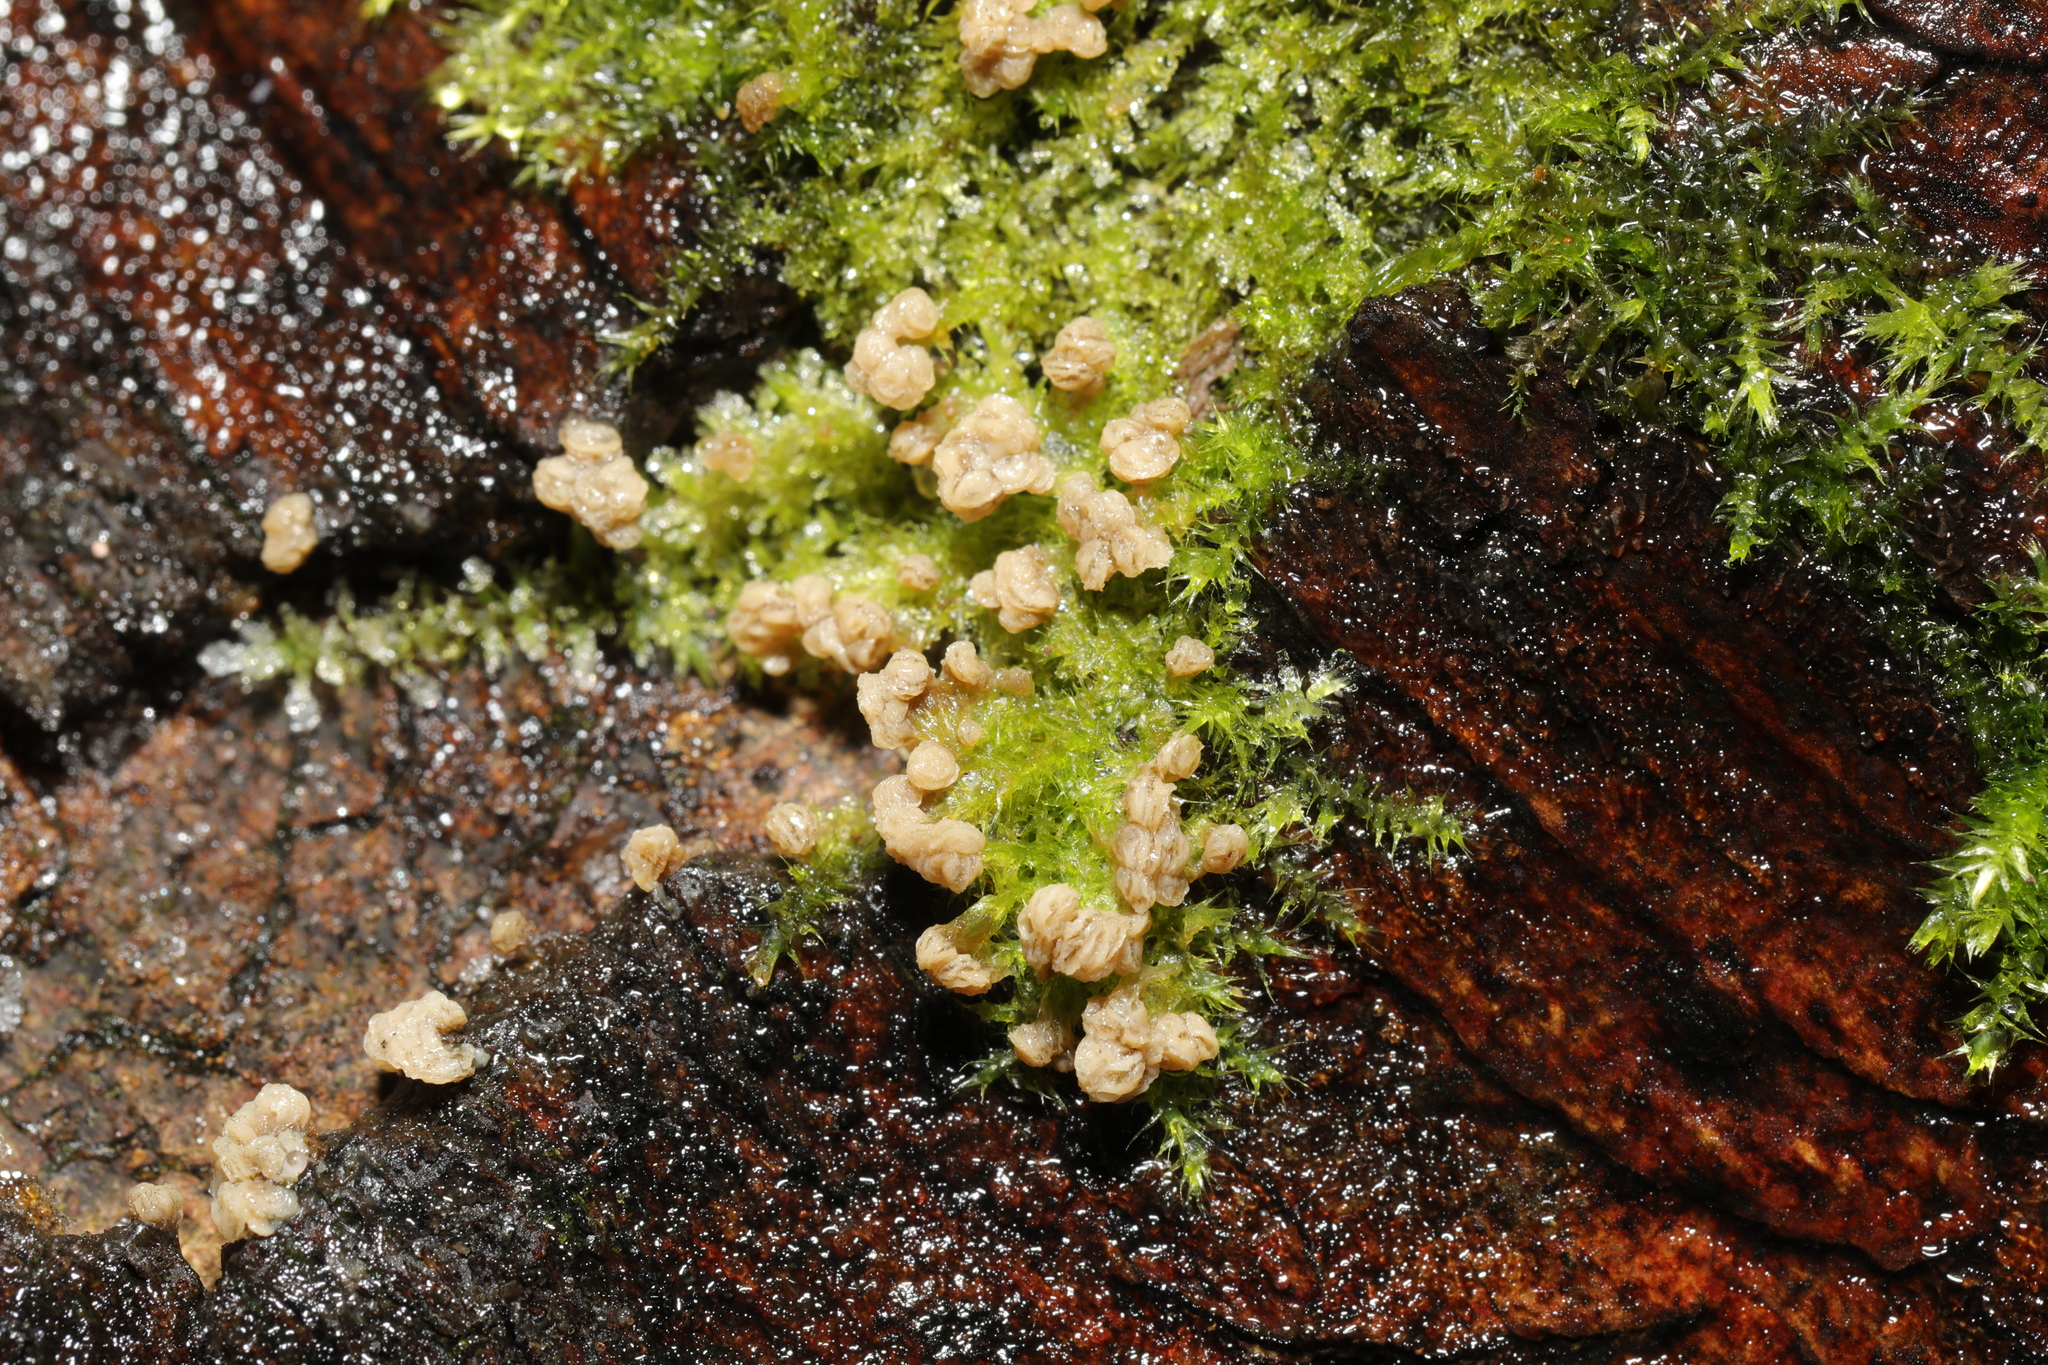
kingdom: Plantae
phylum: Bryophyta
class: Bryopsida
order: Hypnales
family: Amblystegiaceae
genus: Leptodictyum
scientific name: Leptodictyum riparium
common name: Riparian feather moss
